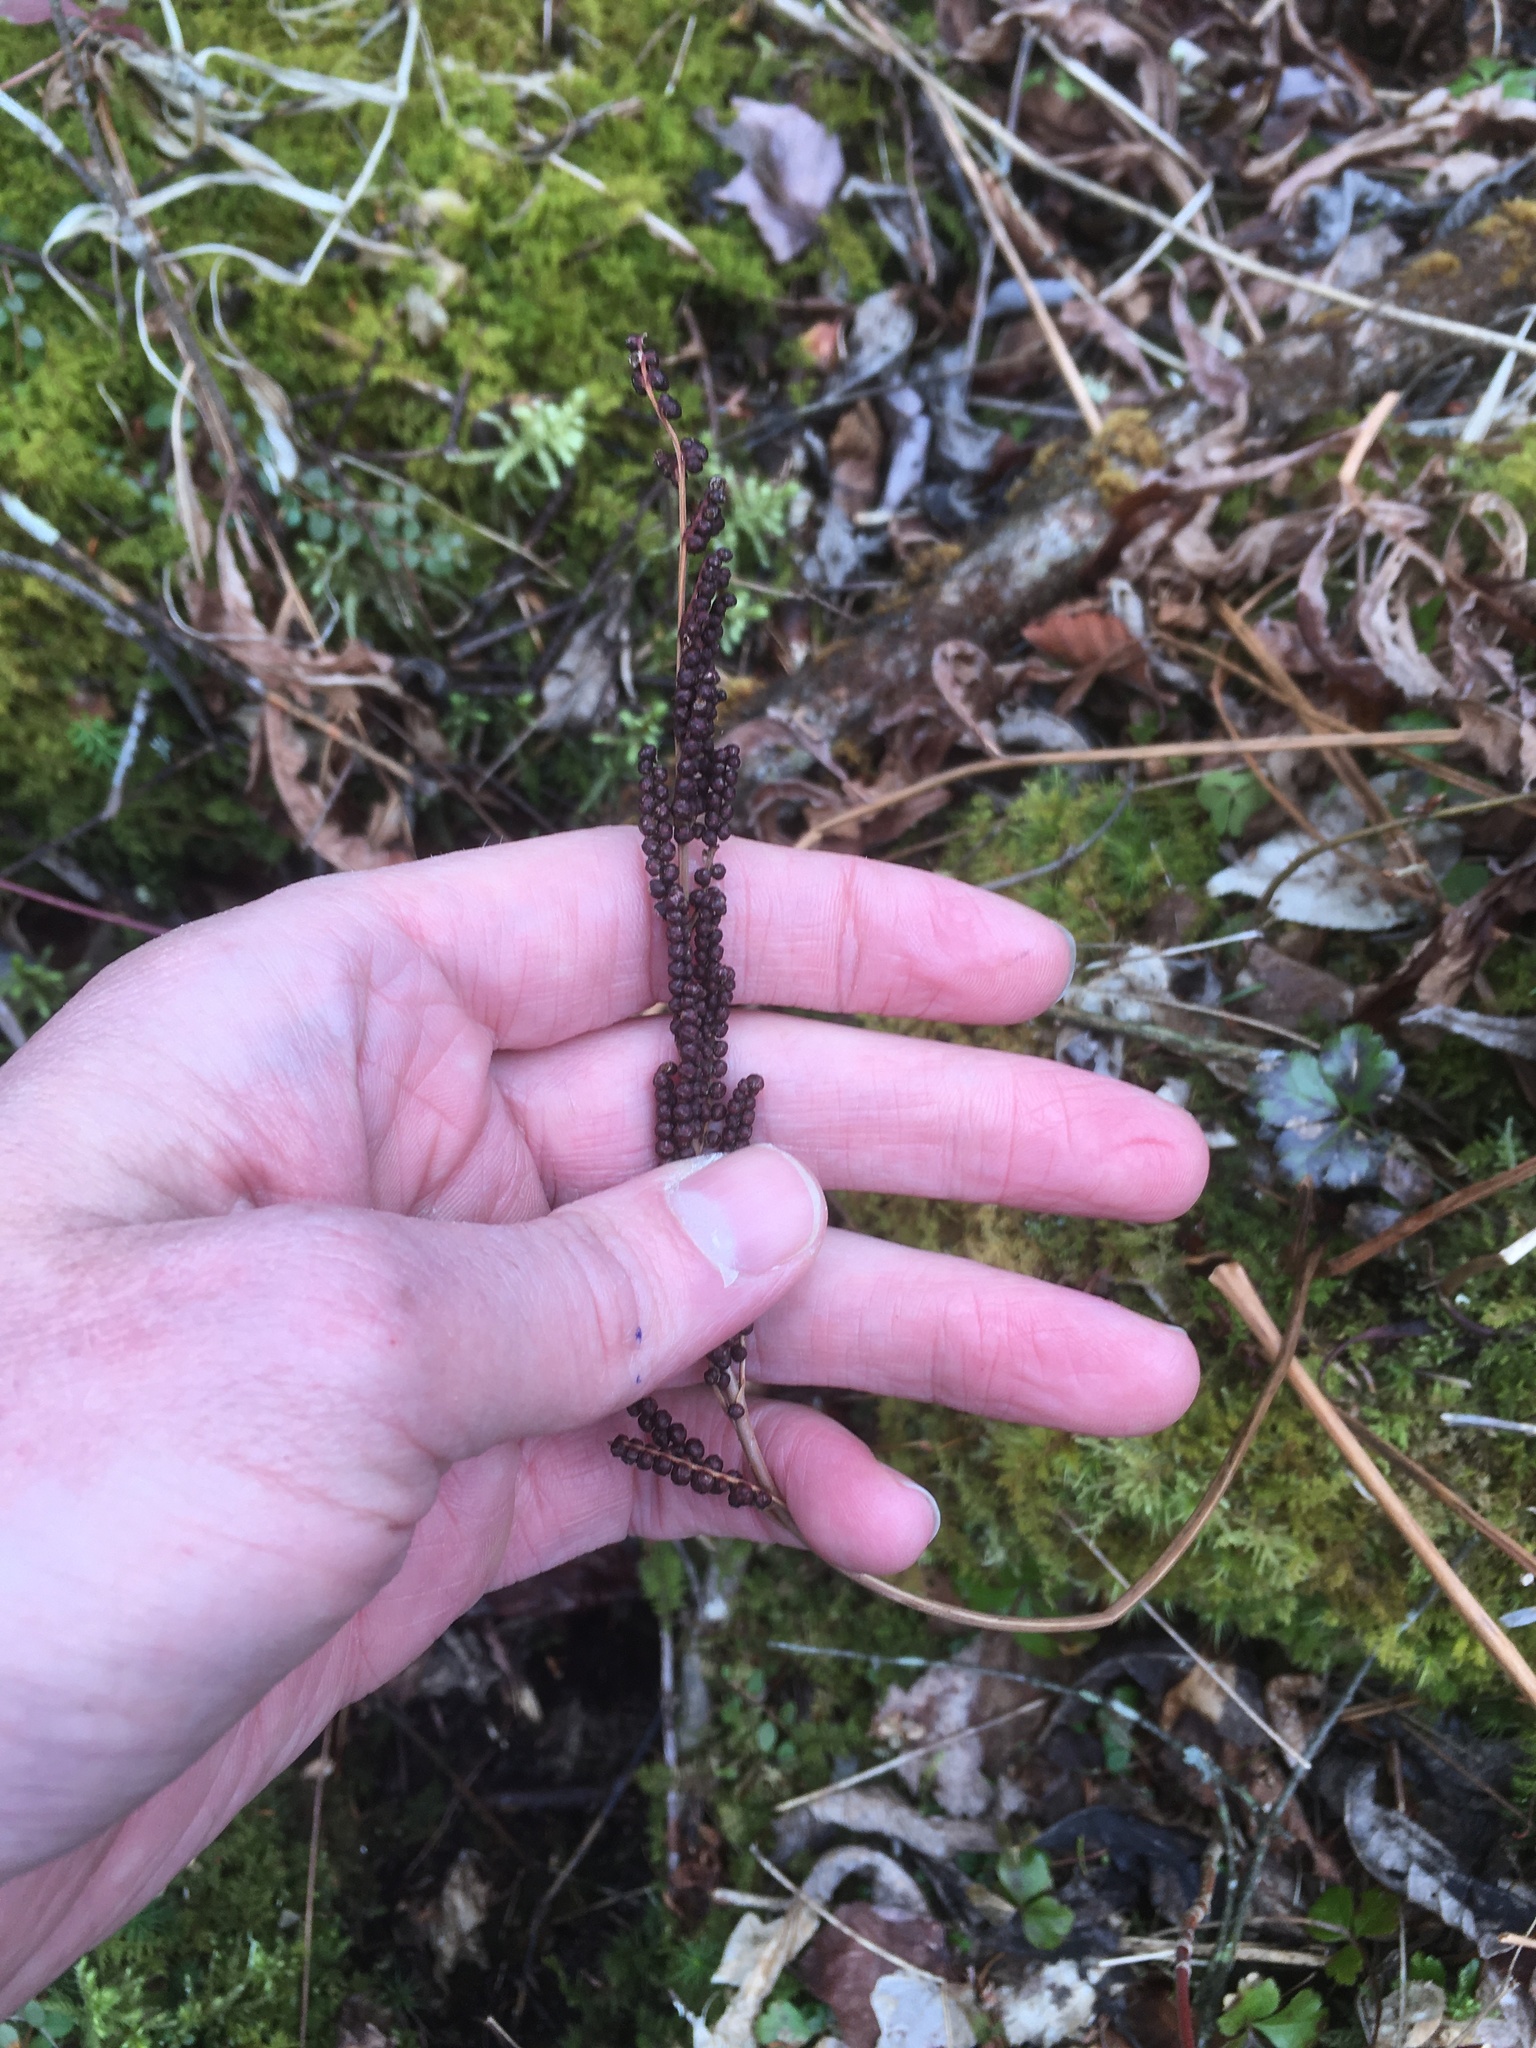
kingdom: Plantae
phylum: Tracheophyta
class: Polypodiopsida
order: Polypodiales
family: Onocleaceae
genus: Onoclea
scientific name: Onoclea sensibilis
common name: Sensitive fern
